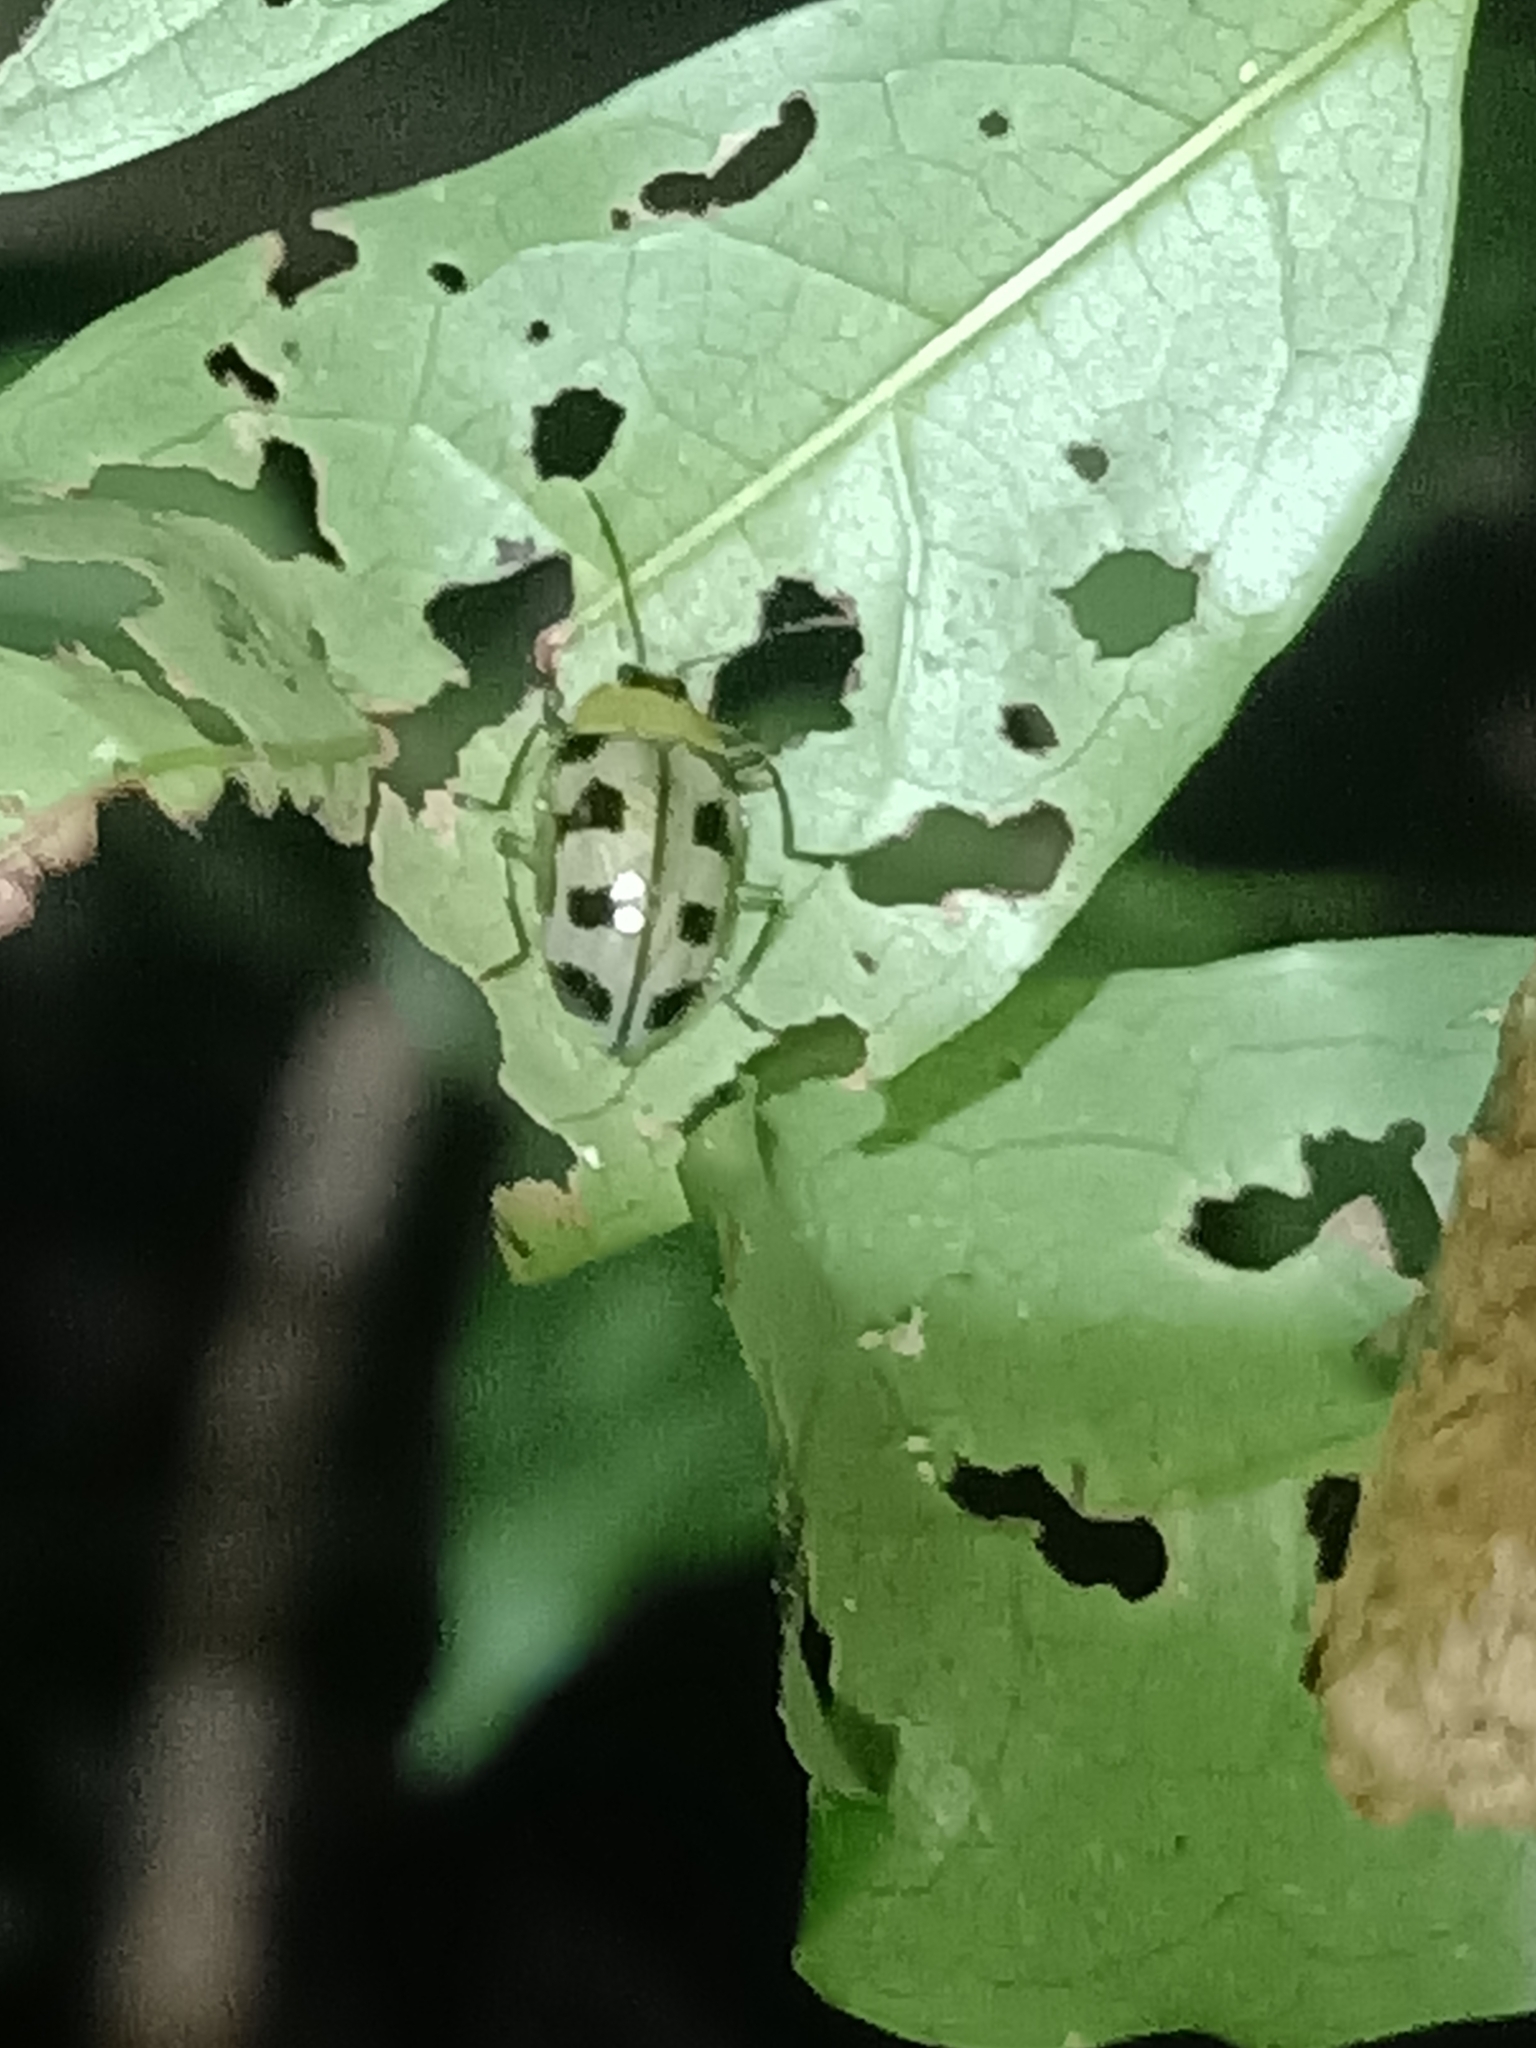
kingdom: Animalia
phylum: Arthropoda
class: Insecta
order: Coleoptera
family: Erotylidae
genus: Neopriotelus
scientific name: Neopriotelus octomaculatus
